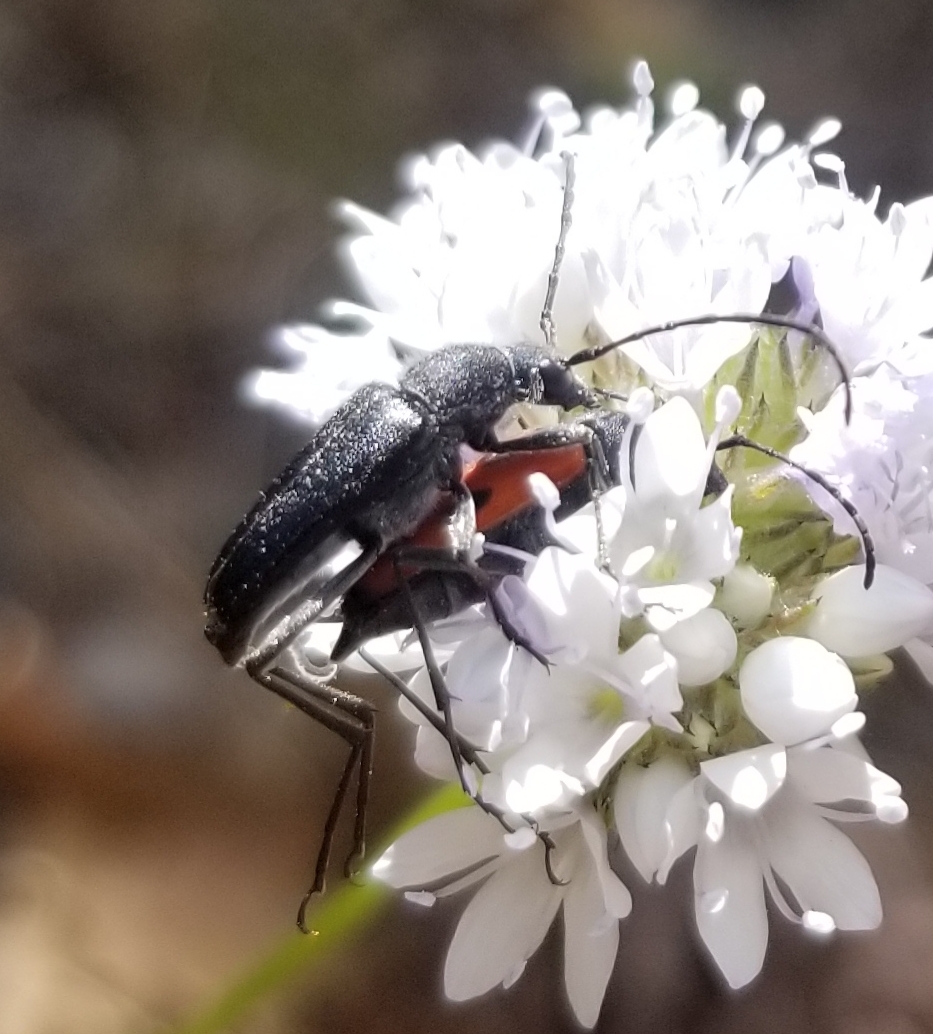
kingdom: Animalia
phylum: Arthropoda
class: Insecta
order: Coleoptera
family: Cerambycidae
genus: Anastrangalia
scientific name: Anastrangalia laetifica
